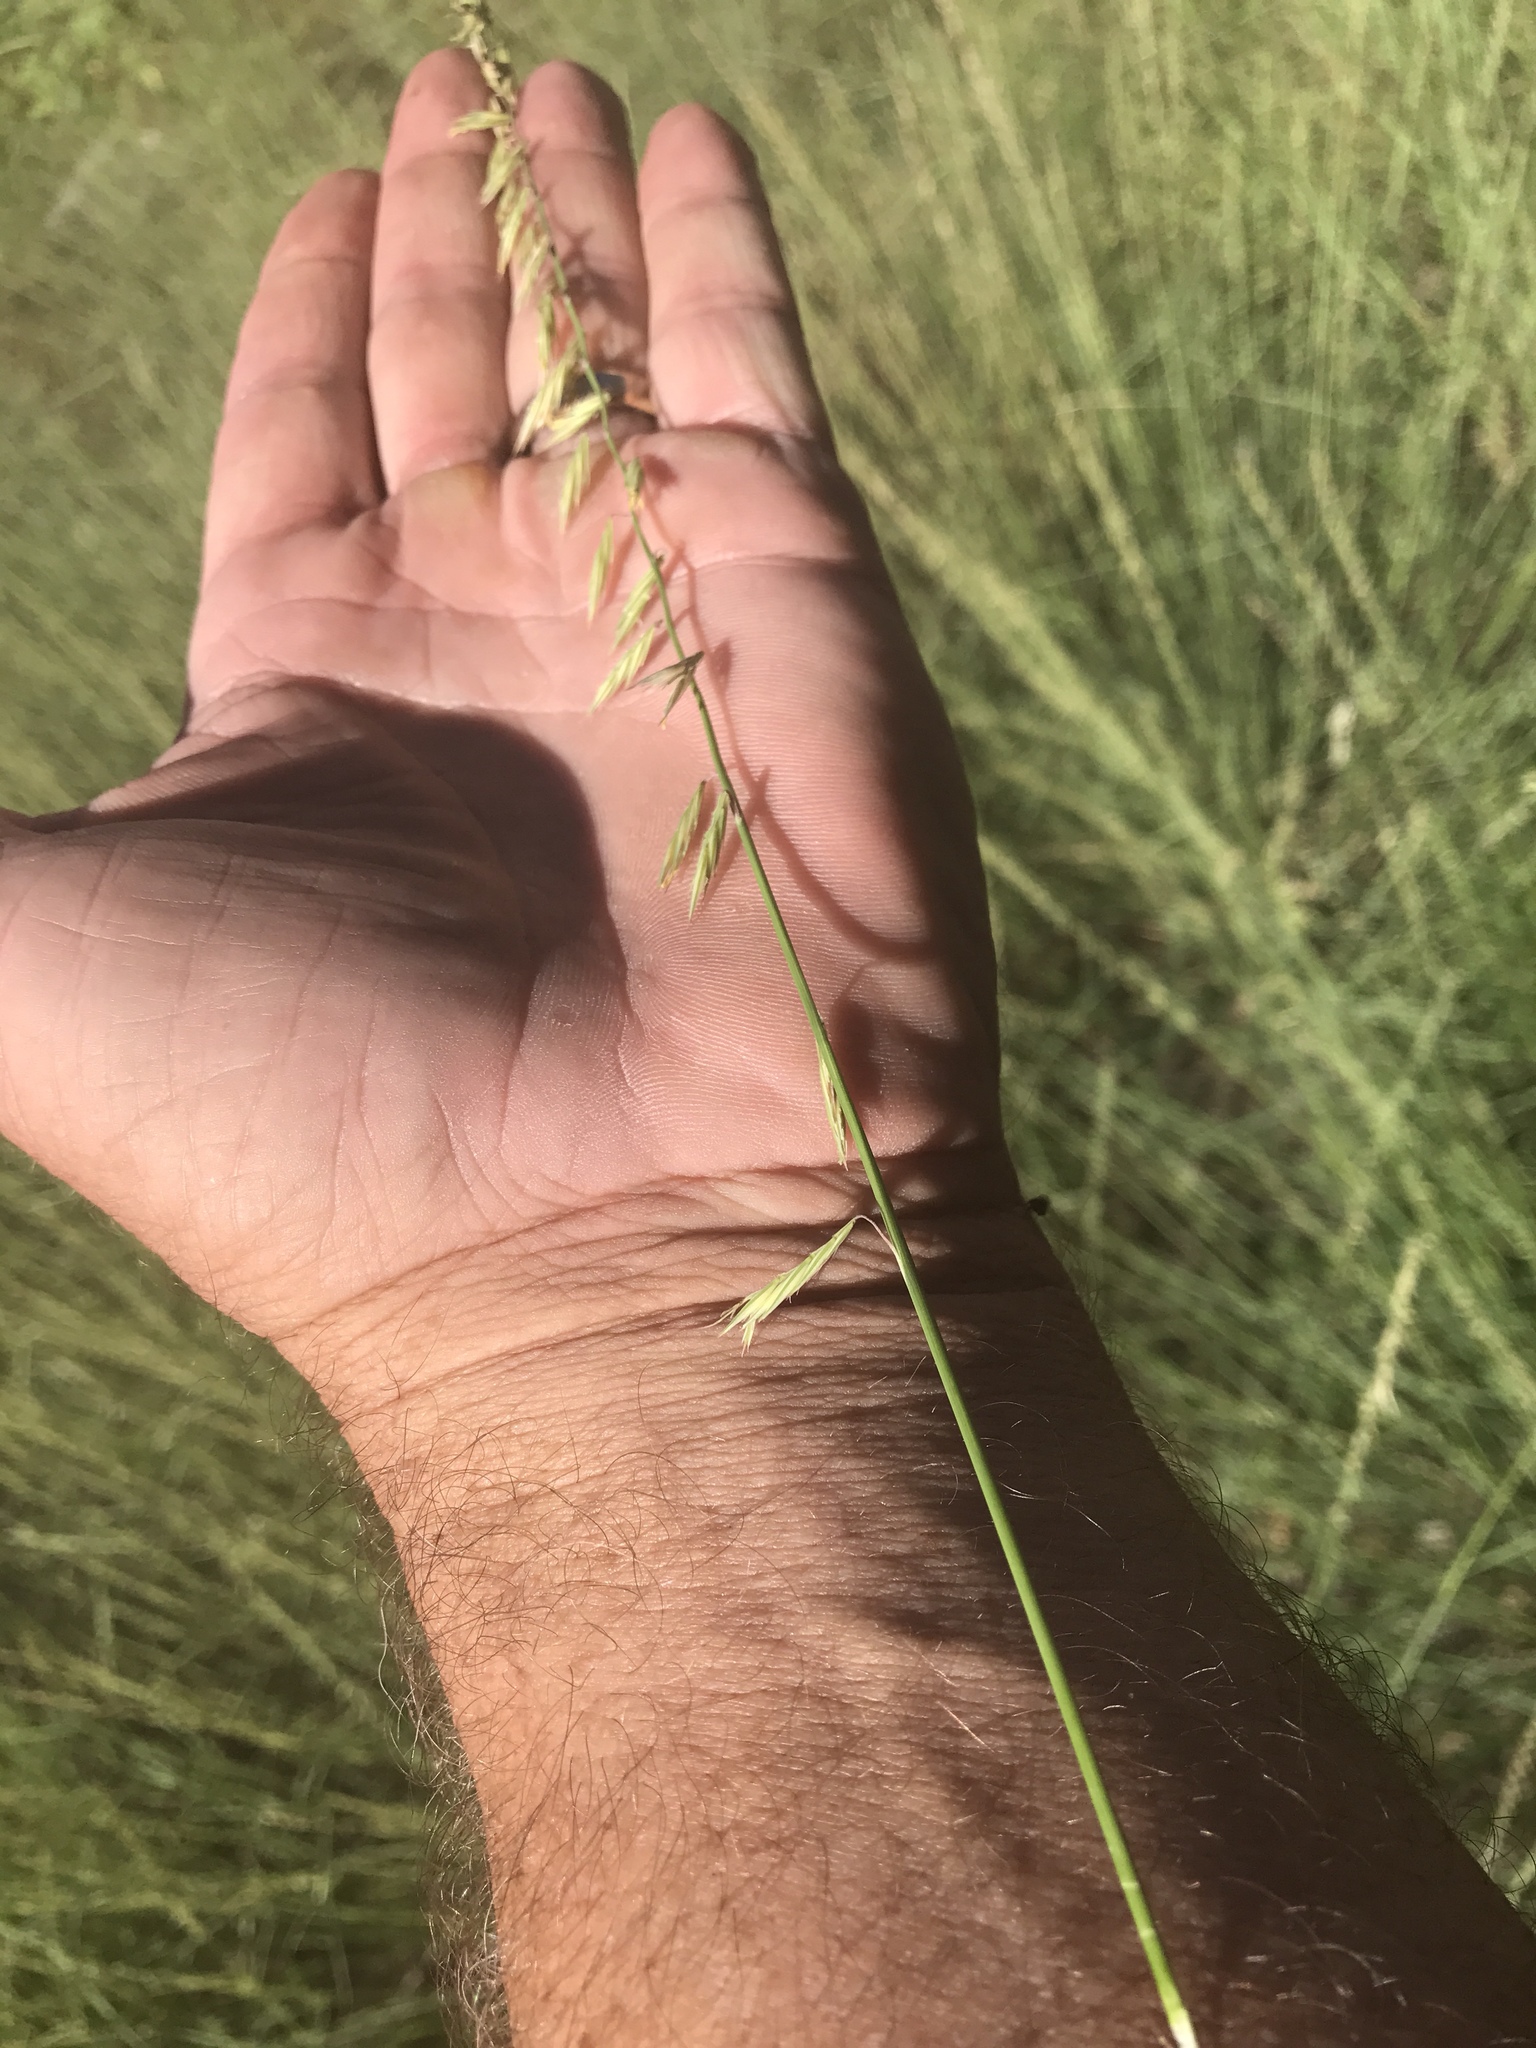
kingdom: Plantae
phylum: Tracheophyta
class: Liliopsida
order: Poales
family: Poaceae
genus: Bouteloua
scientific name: Bouteloua curtipendula
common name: Side-oats grama
